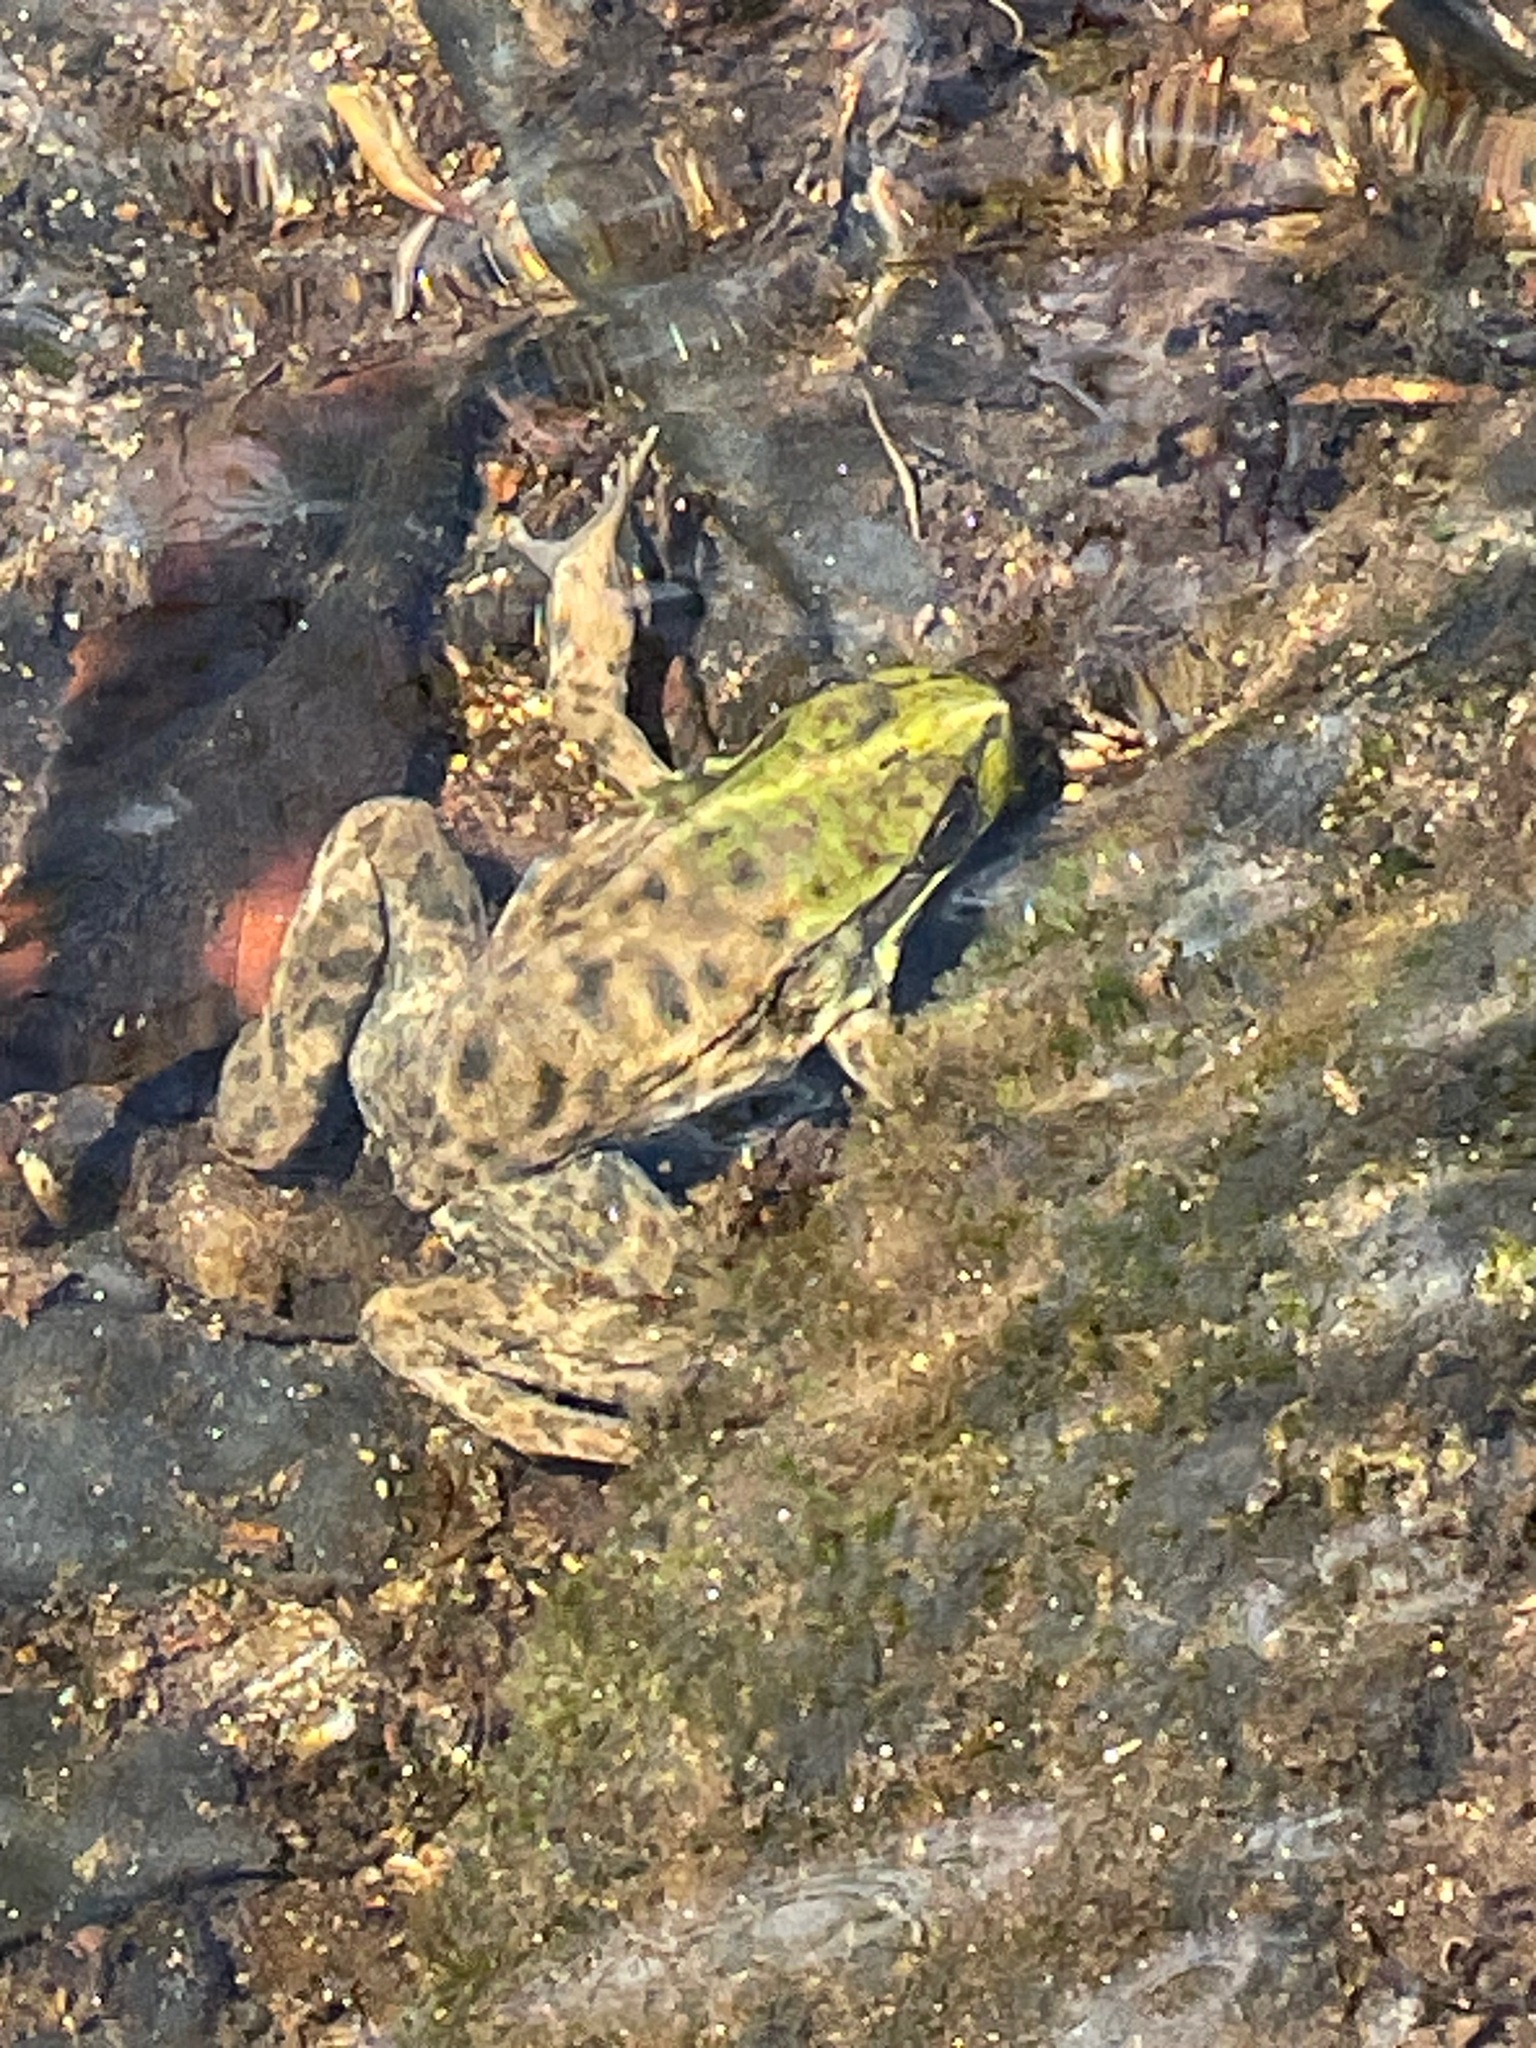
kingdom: Animalia
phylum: Chordata
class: Amphibia
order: Anura
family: Ranidae
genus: Lithobates
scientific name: Lithobates clamitans
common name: Green frog
